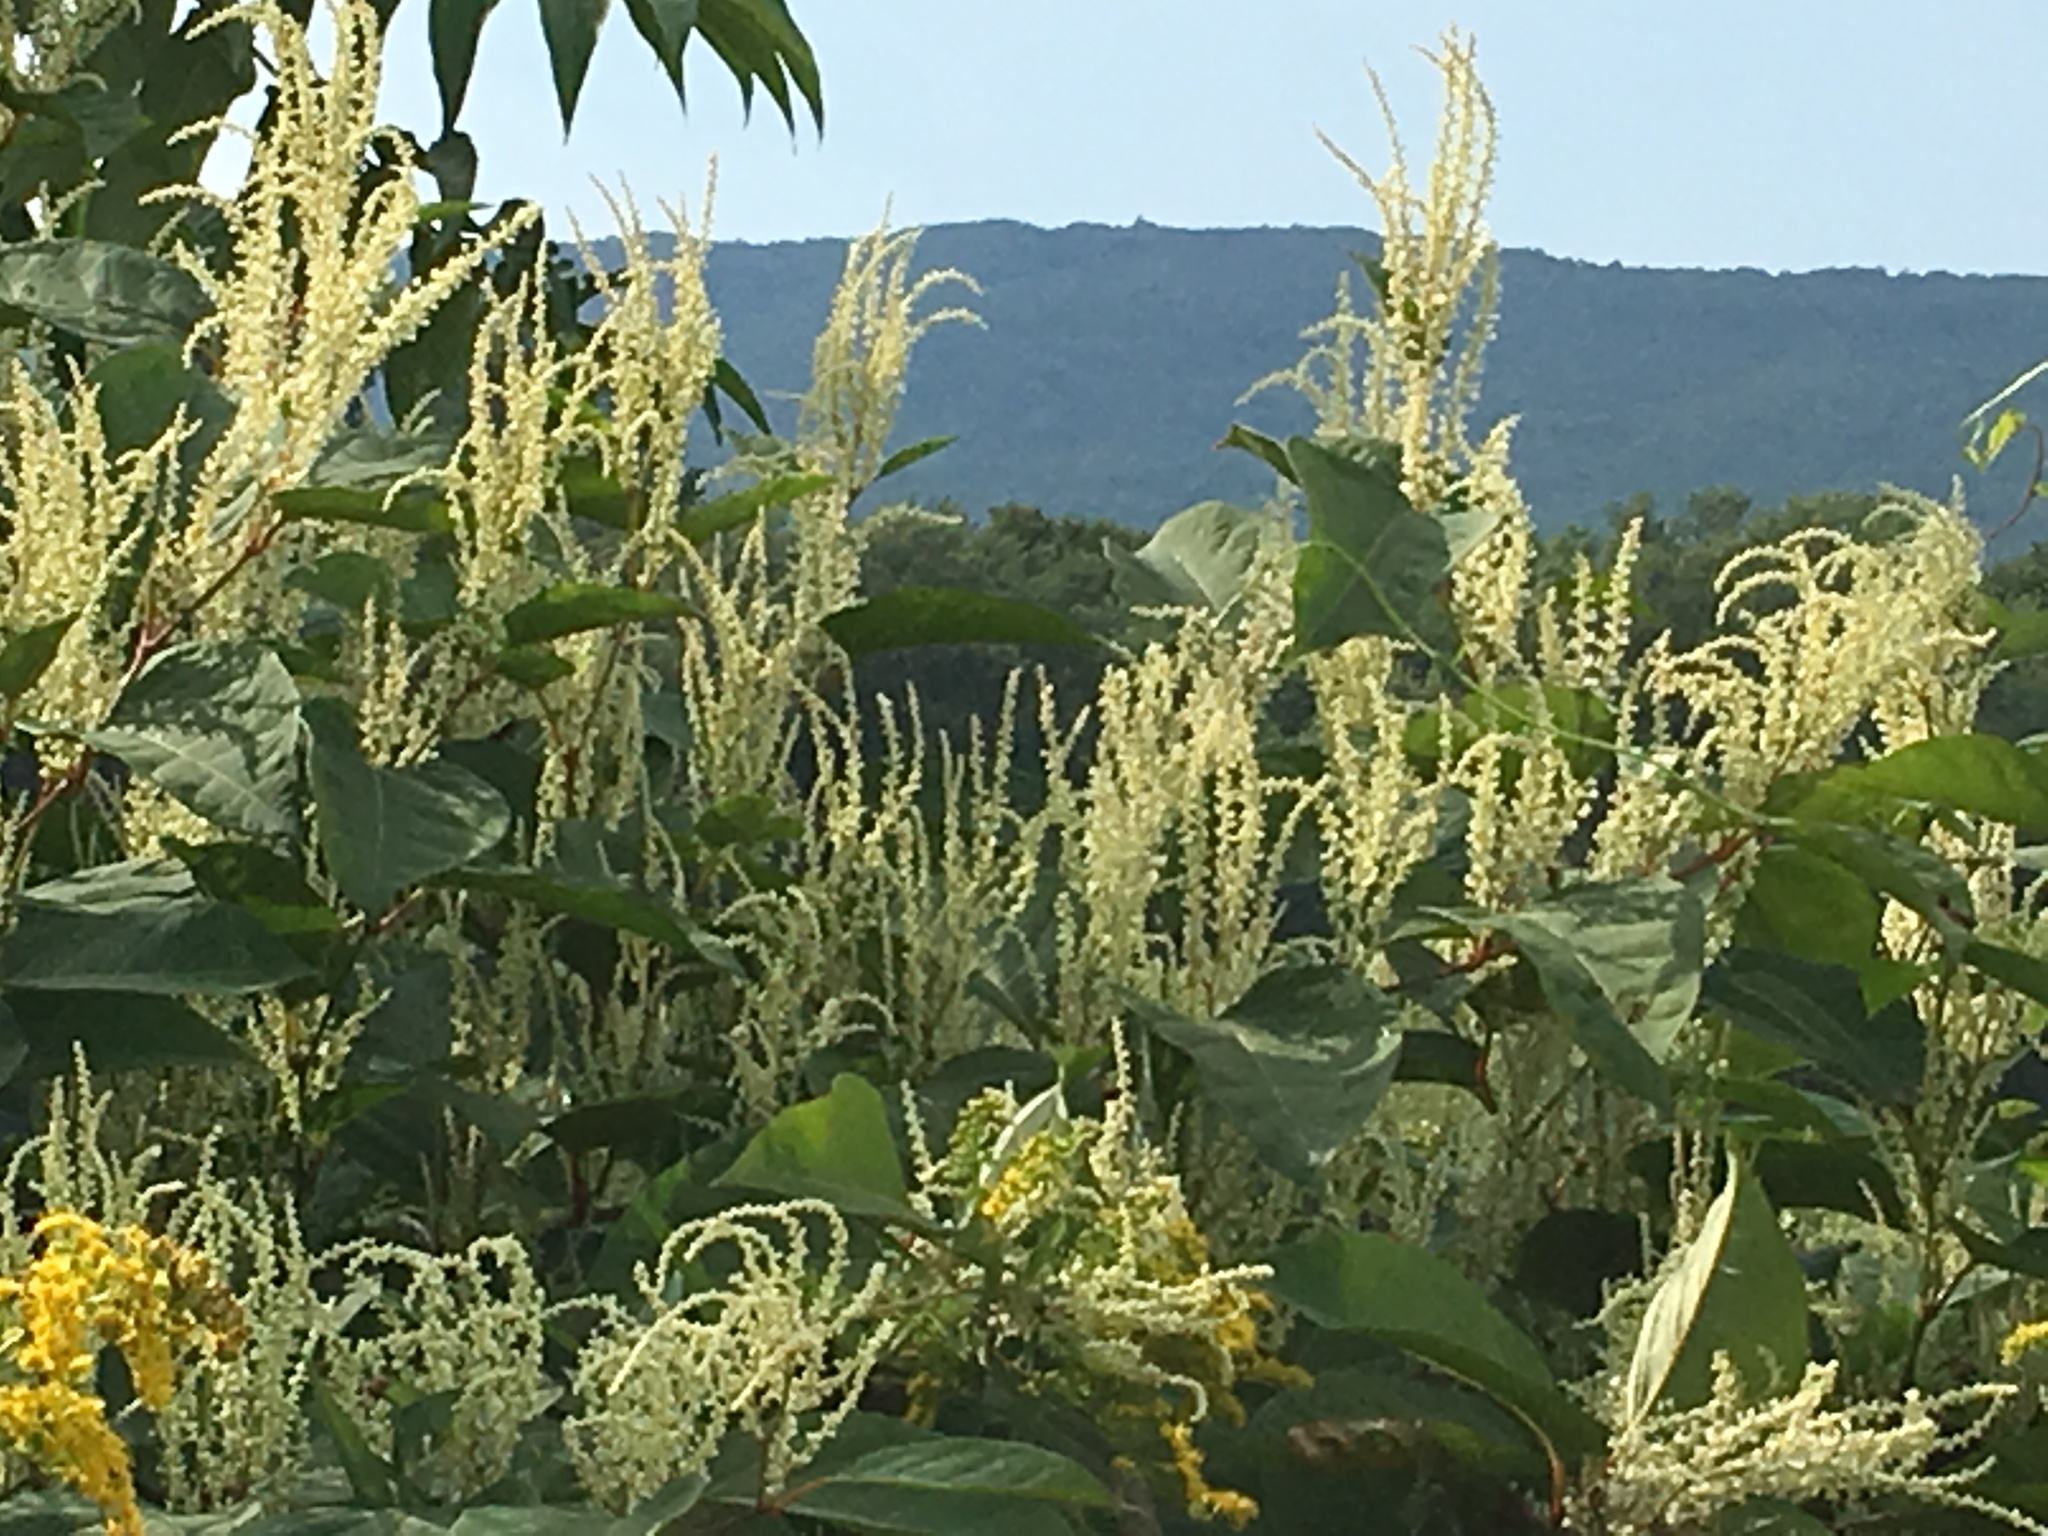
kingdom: Plantae
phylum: Tracheophyta
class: Magnoliopsida
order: Caryophyllales
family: Polygonaceae
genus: Reynoutria
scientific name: Reynoutria japonica
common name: Japanese knotweed
